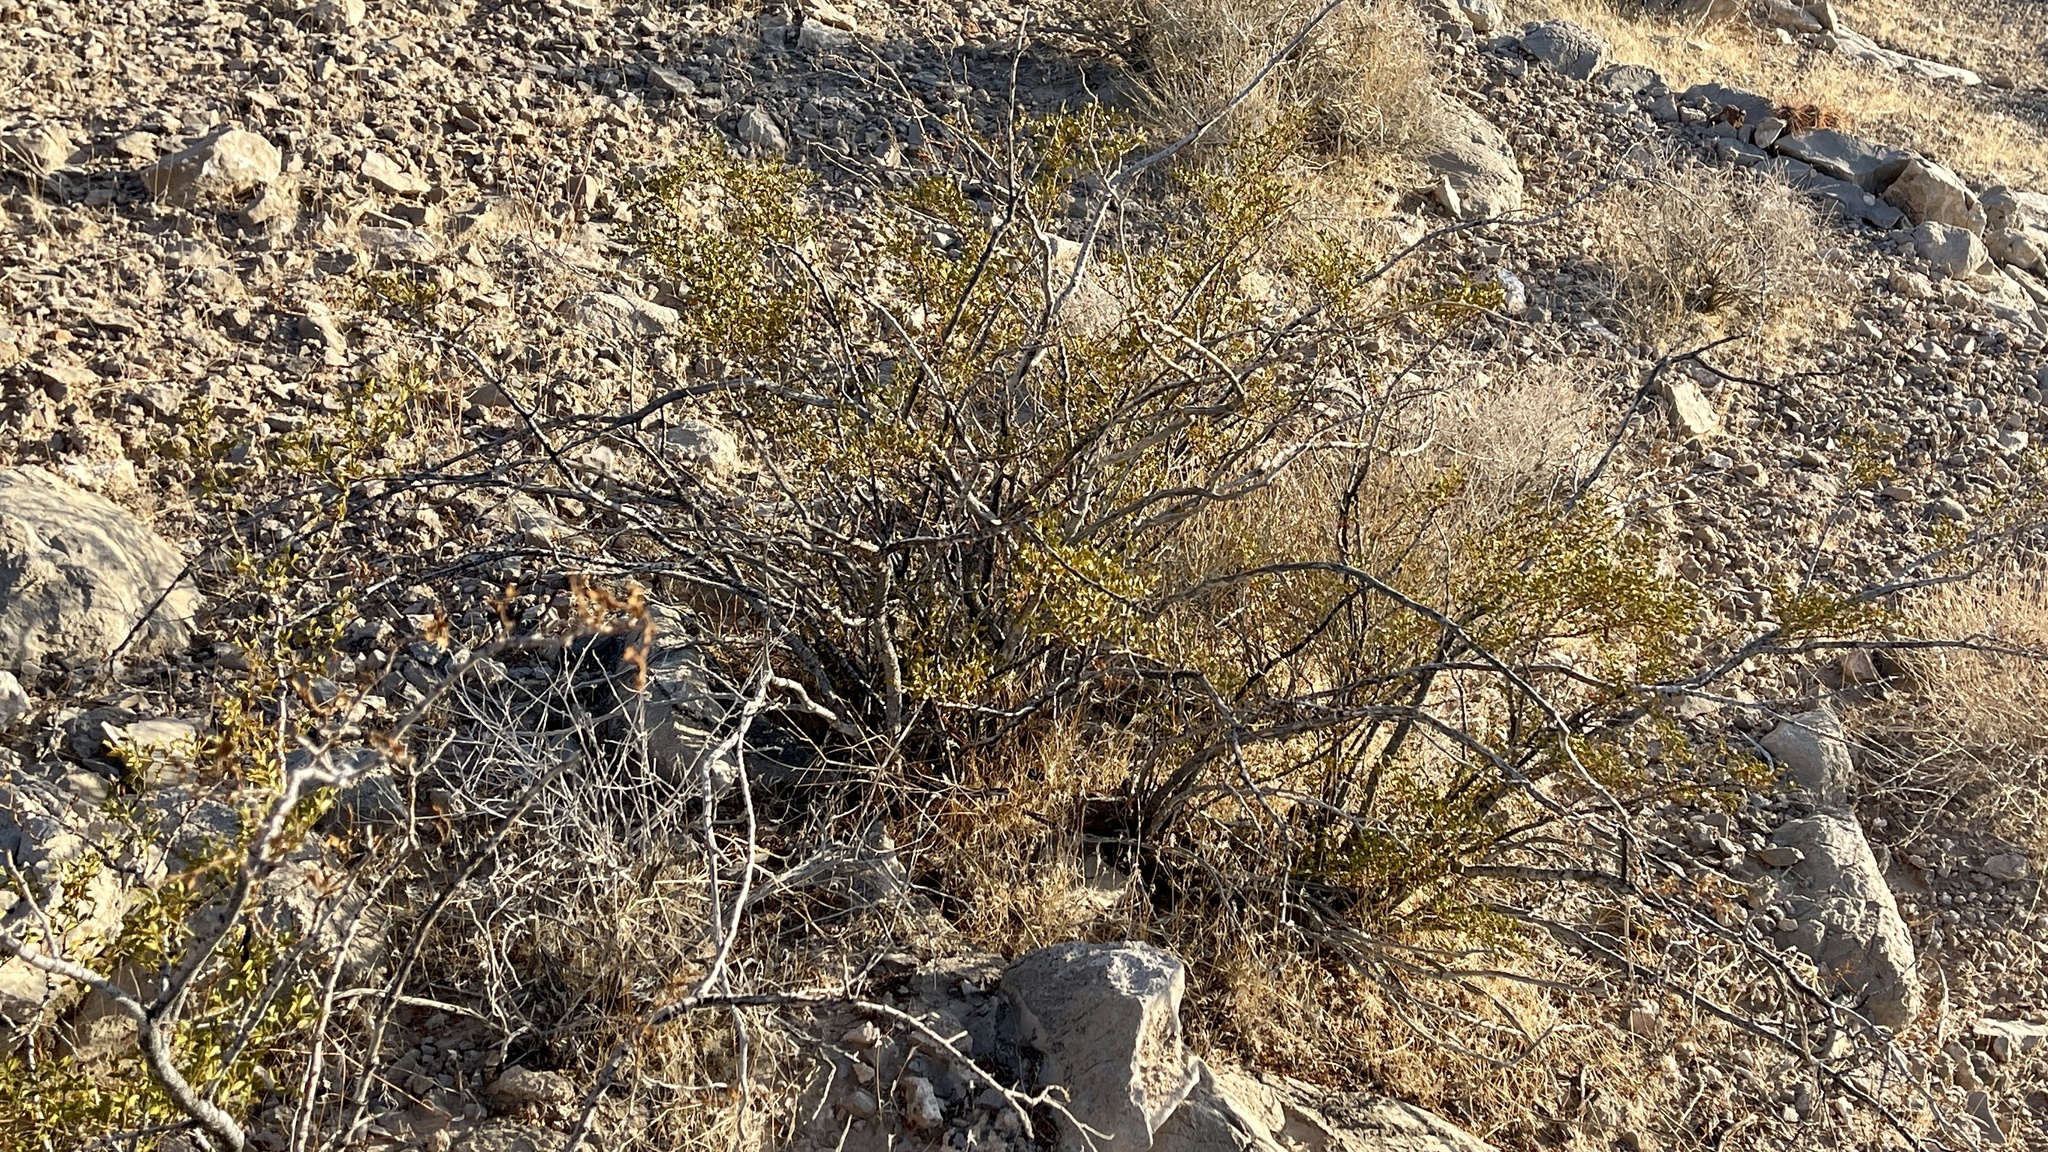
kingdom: Plantae
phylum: Tracheophyta
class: Magnoliopsida
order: Zygophyllales
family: Zygophyllaceae
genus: Larrea
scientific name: Larrea tridentata
